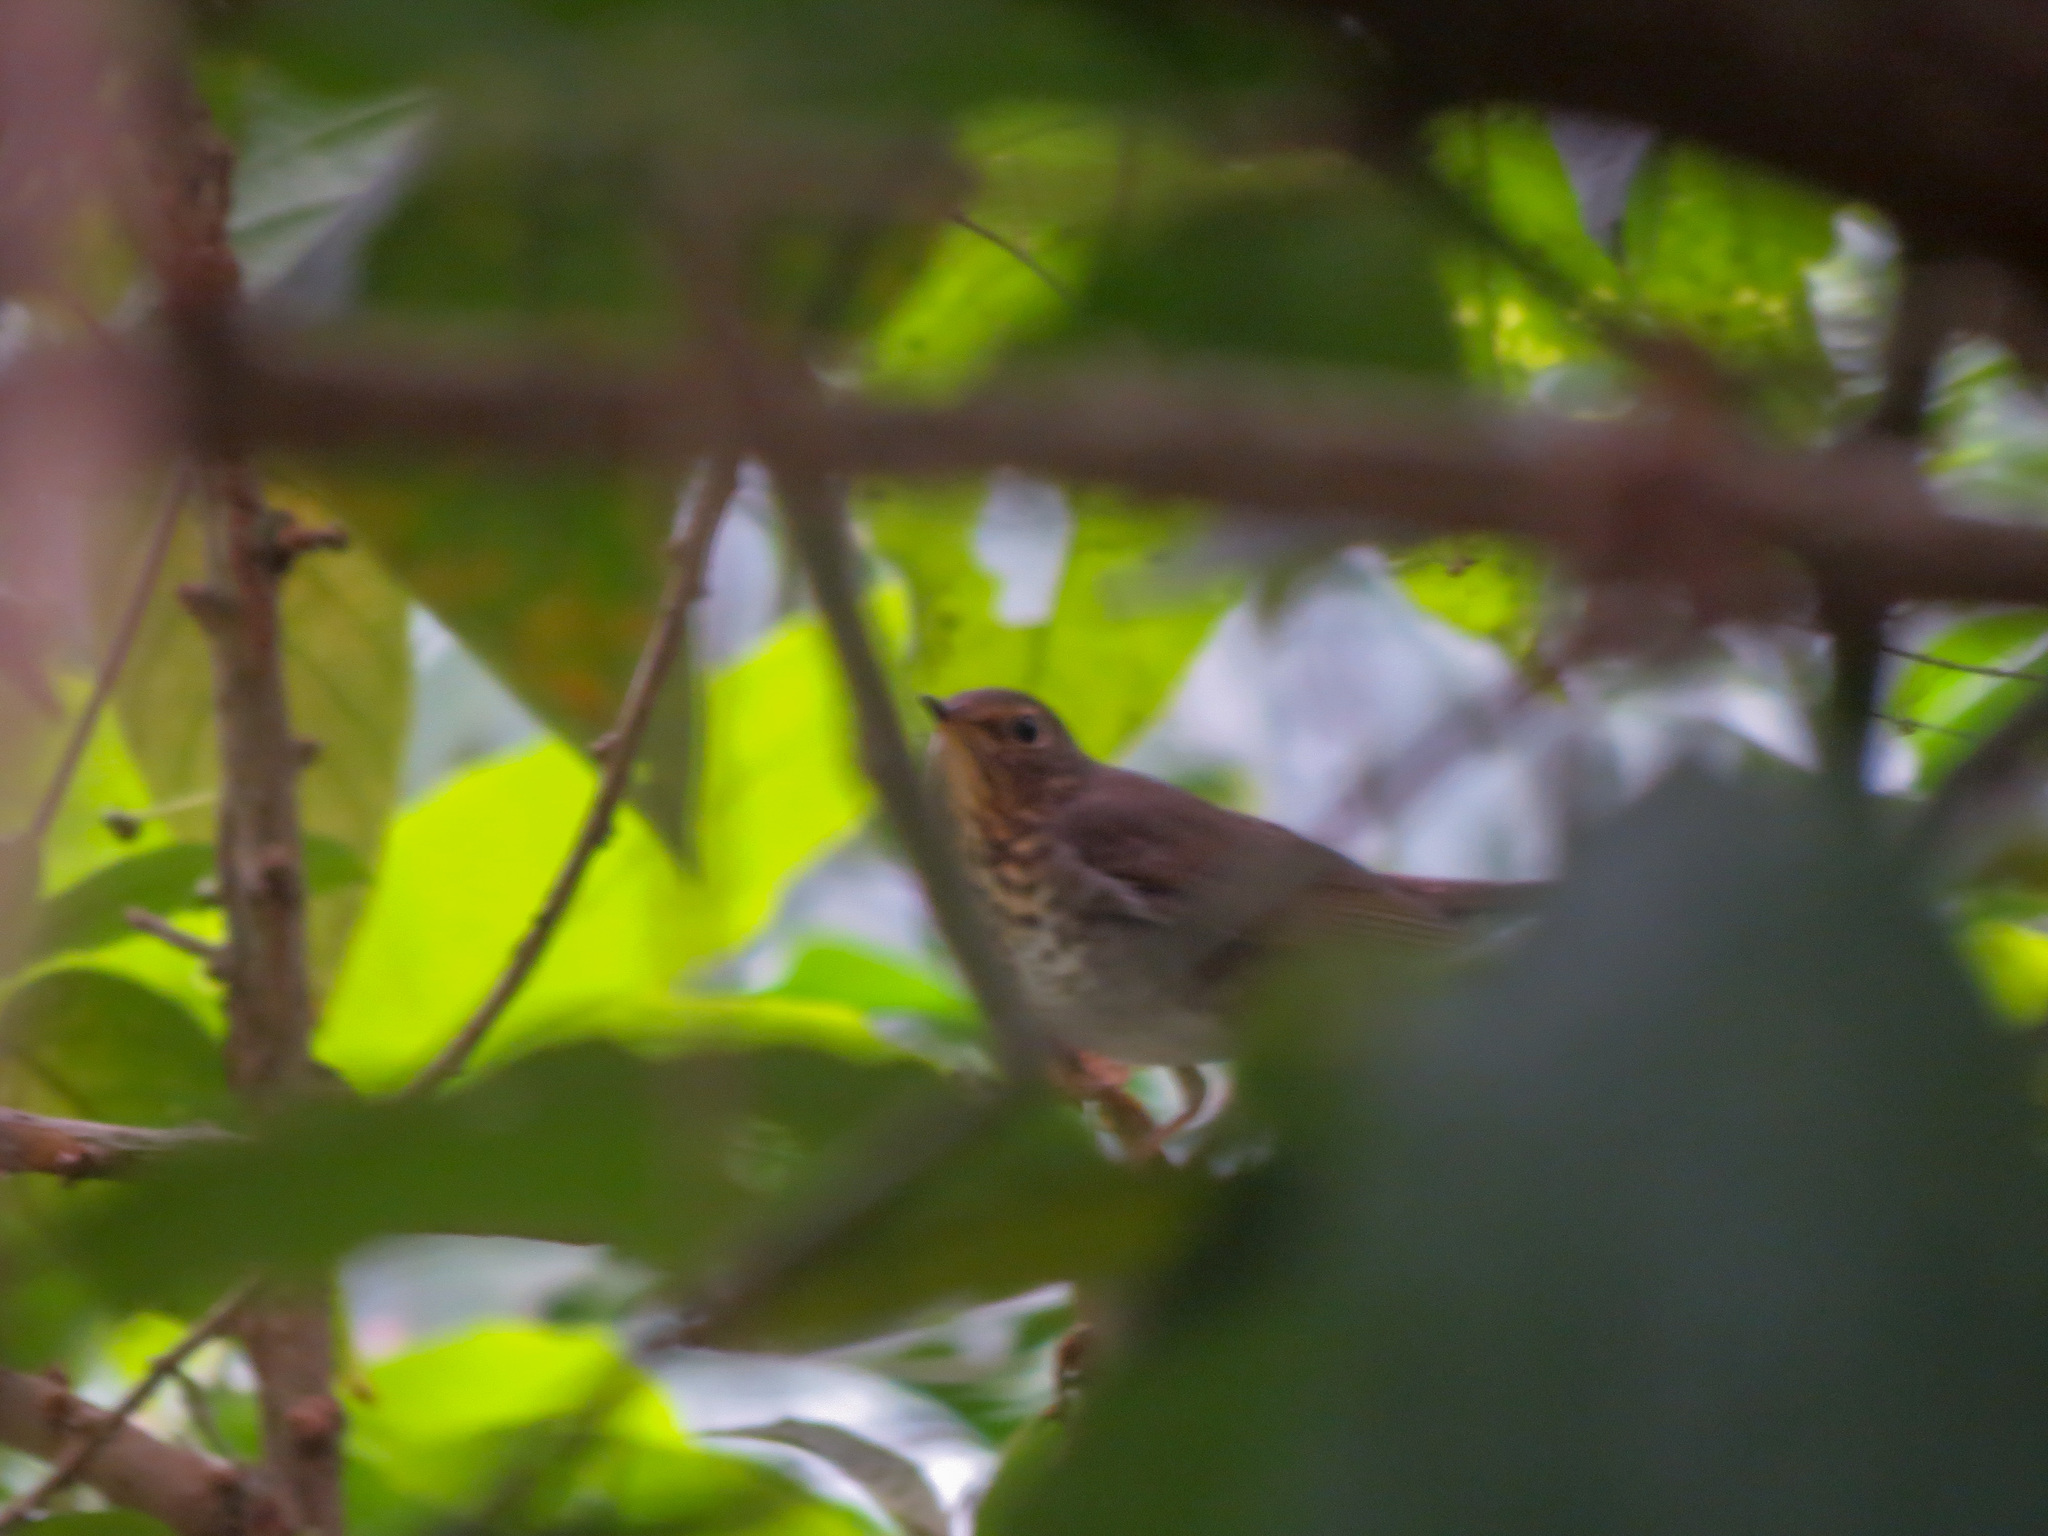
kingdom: Animalia
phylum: Chordata
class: Aves
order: Passeriformes
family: Turdidae
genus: Catharus
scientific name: Catharus ustulatus
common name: Swainson's thrush
